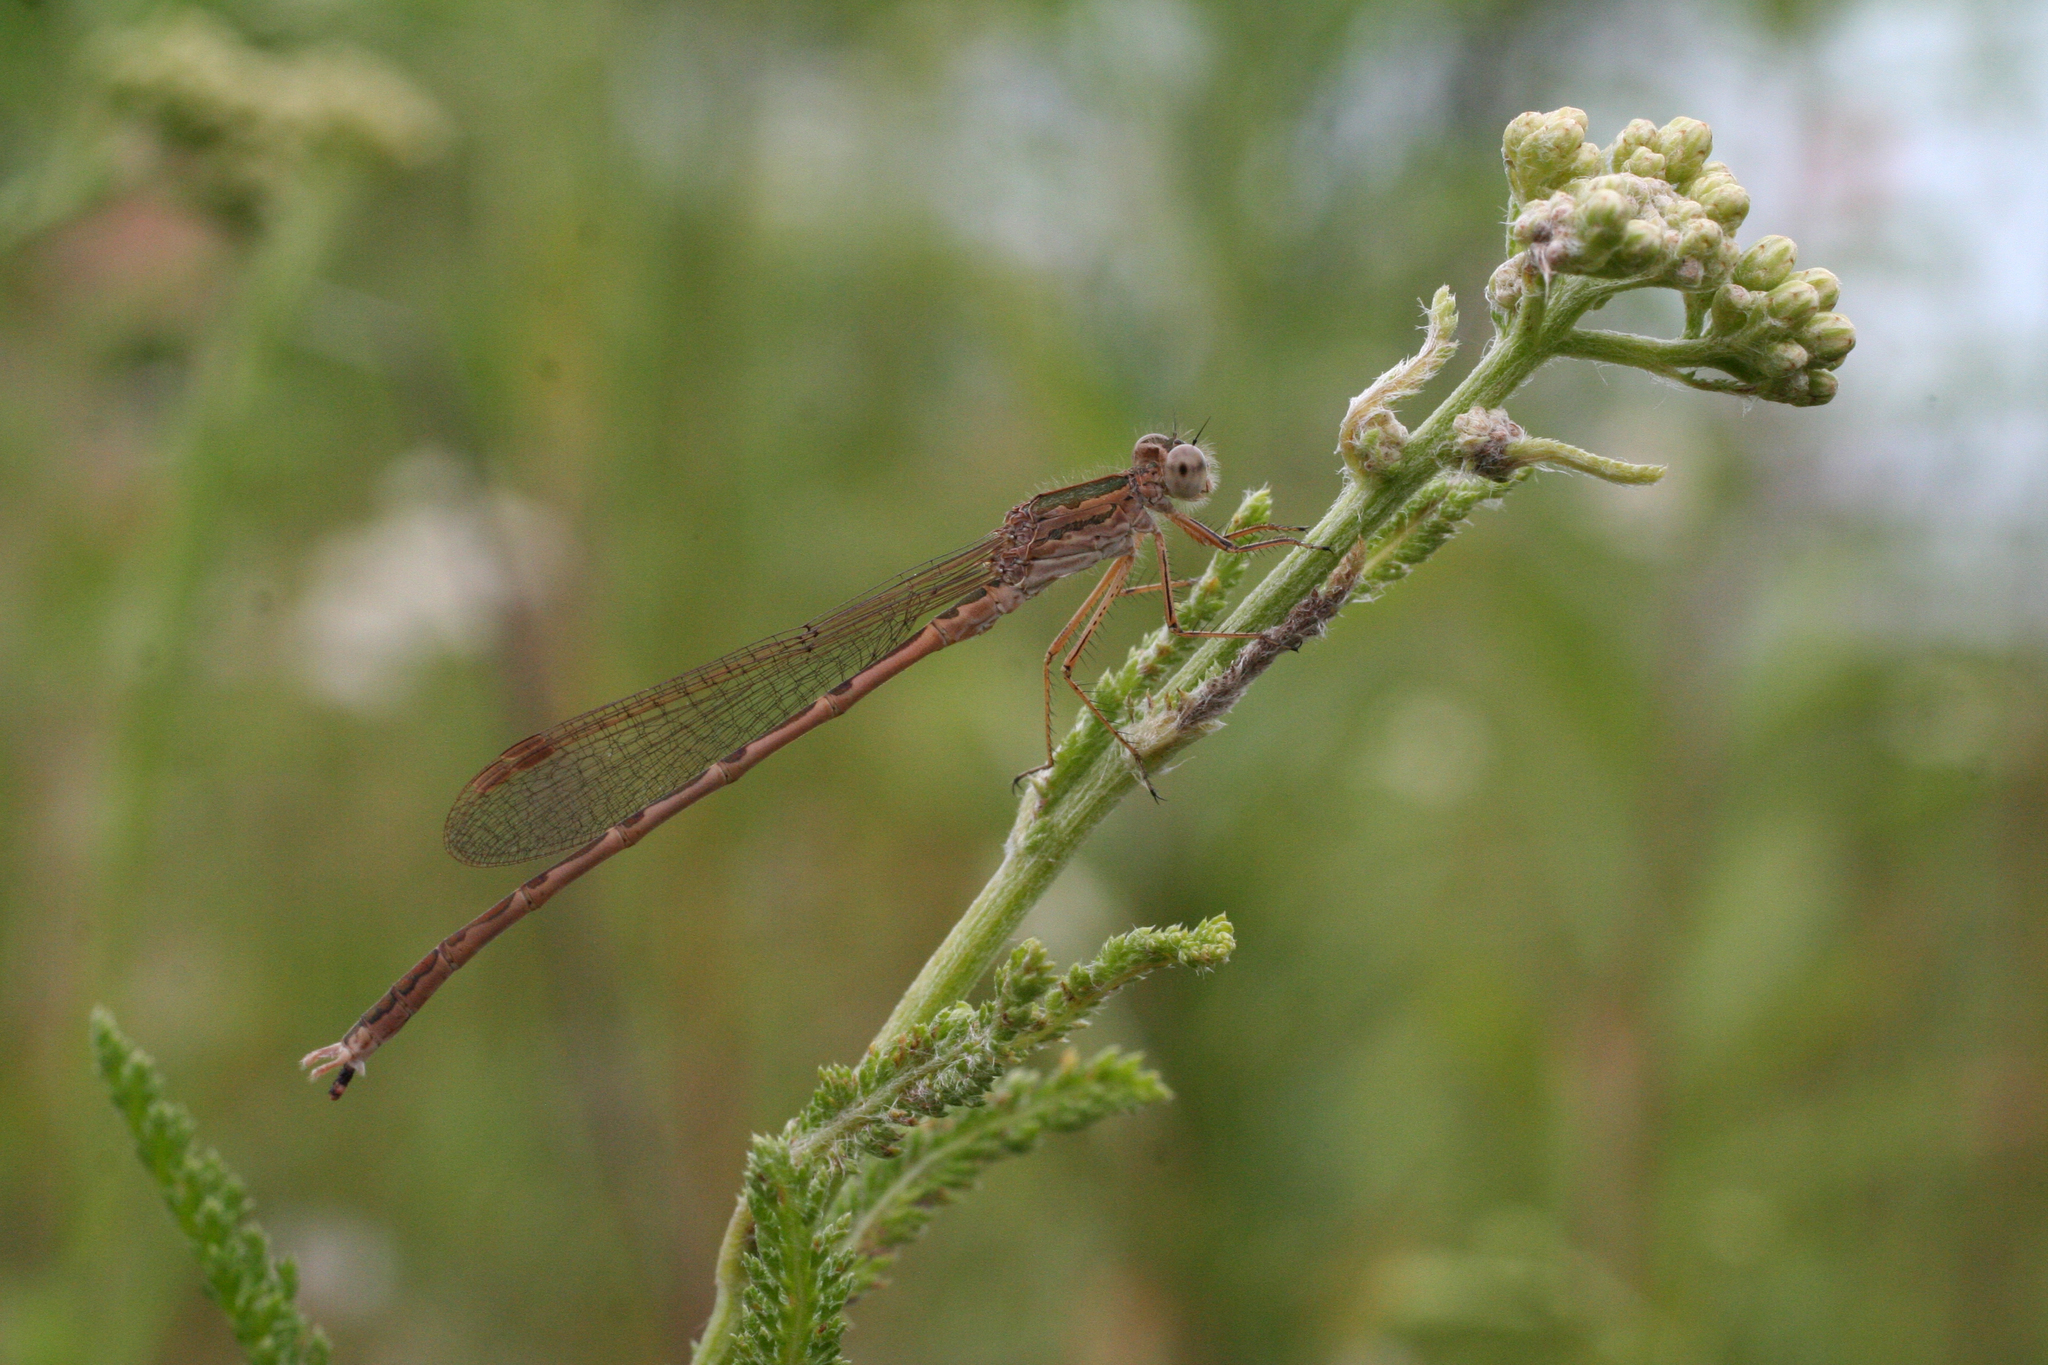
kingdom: Animalia
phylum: Arthropoda
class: Insecta
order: Odonata
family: Lestidae
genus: Sympecma
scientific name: Sympecma paedisca
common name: Siberian winter damsel
